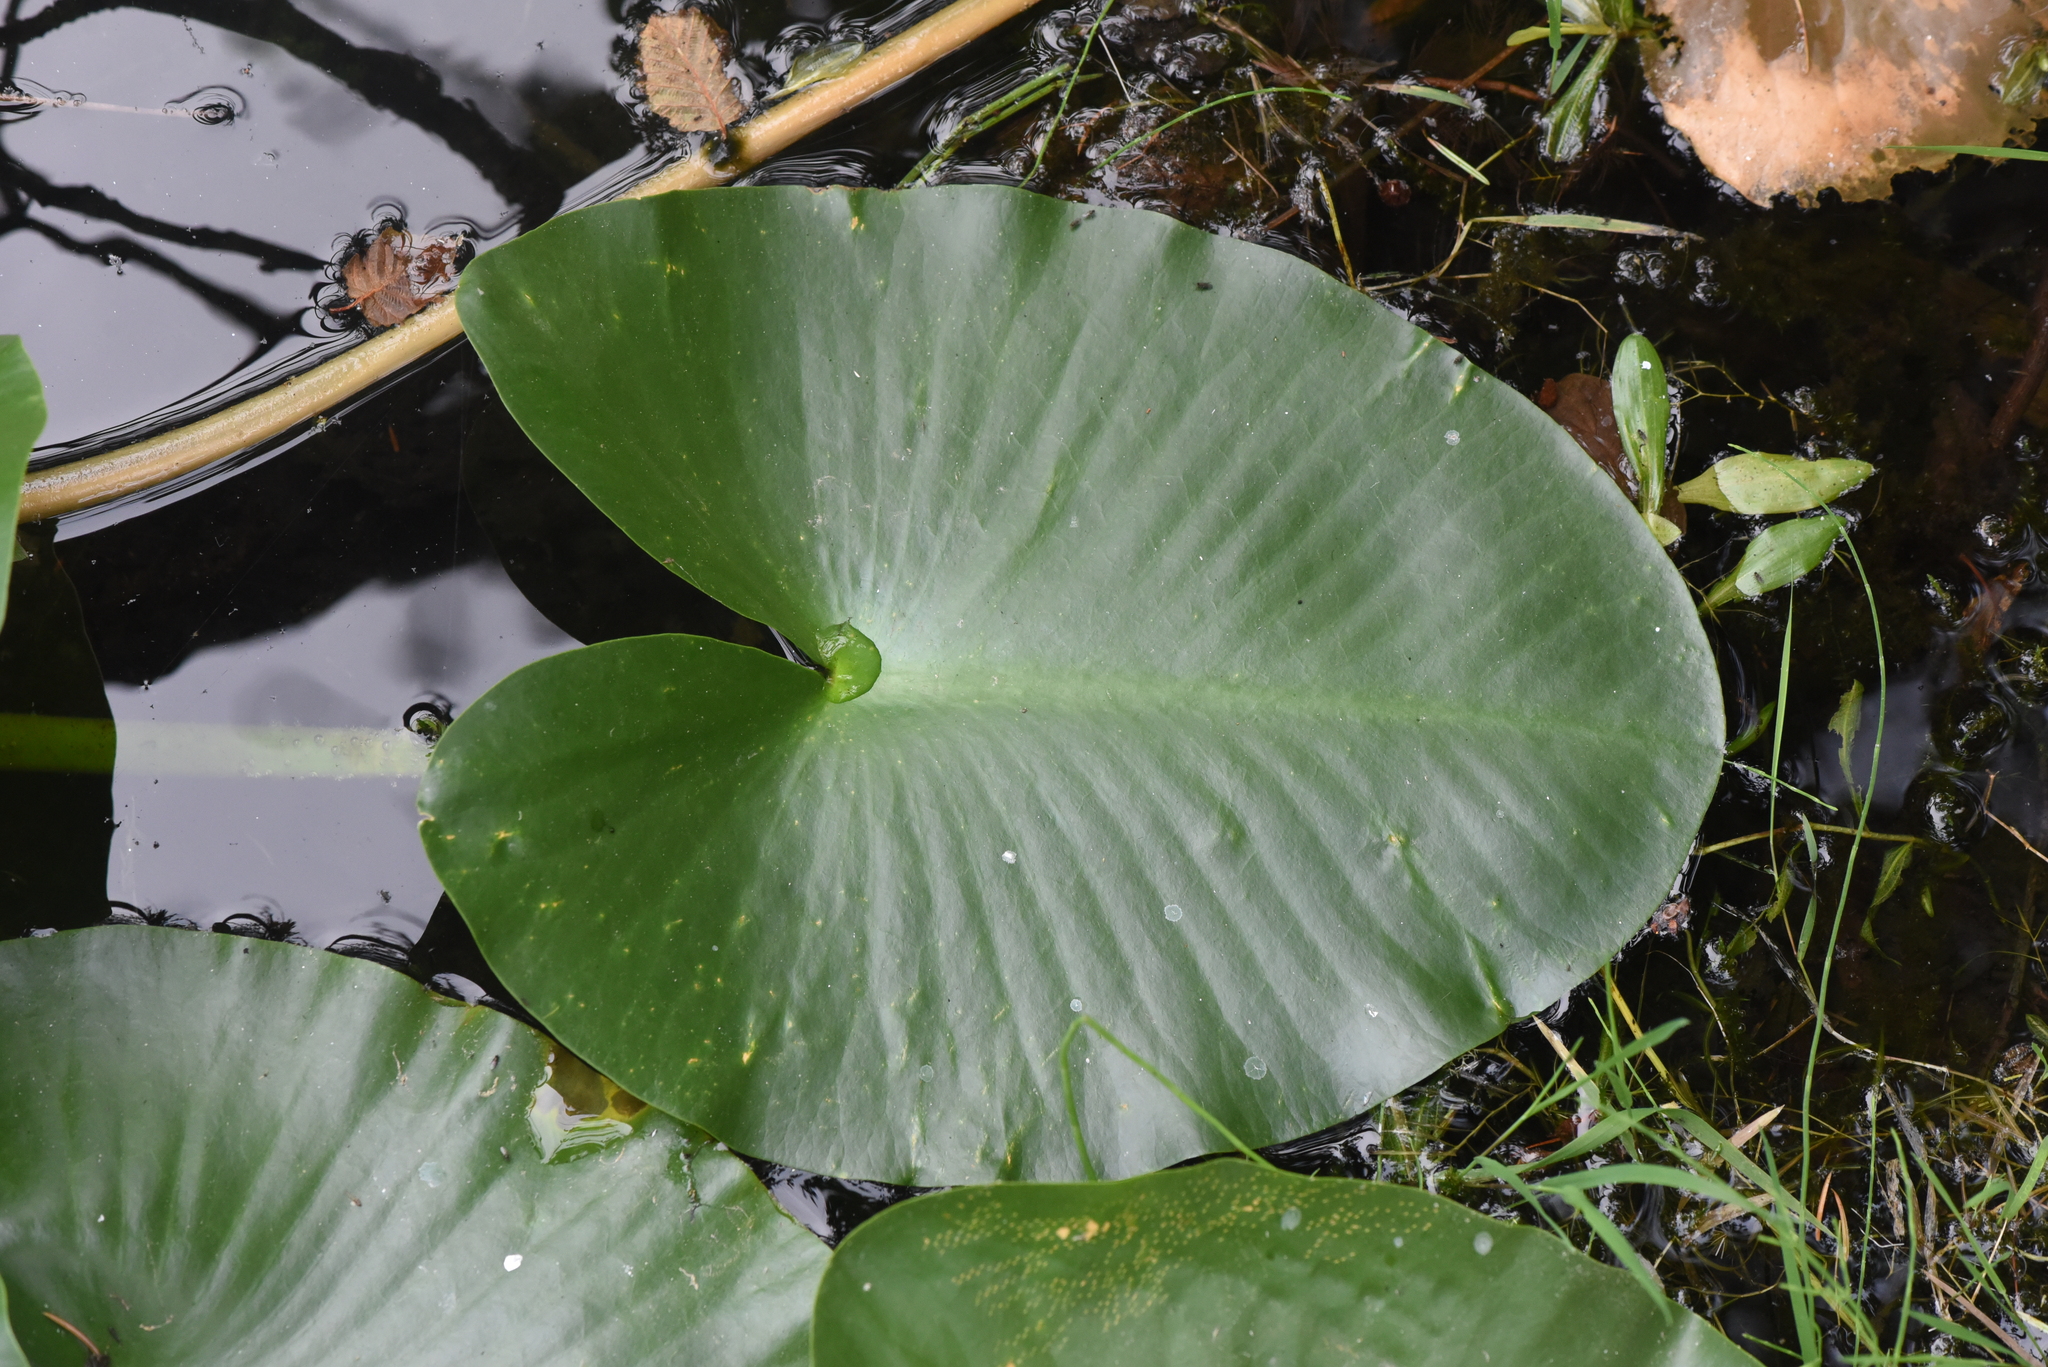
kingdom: Plantae
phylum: Tracheophyta
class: Magnoliopsida
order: Nymphaeales
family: Nymphaeaceae
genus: Nuphar
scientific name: Nuphar polysepala
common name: Rocky mountain cow-lily
